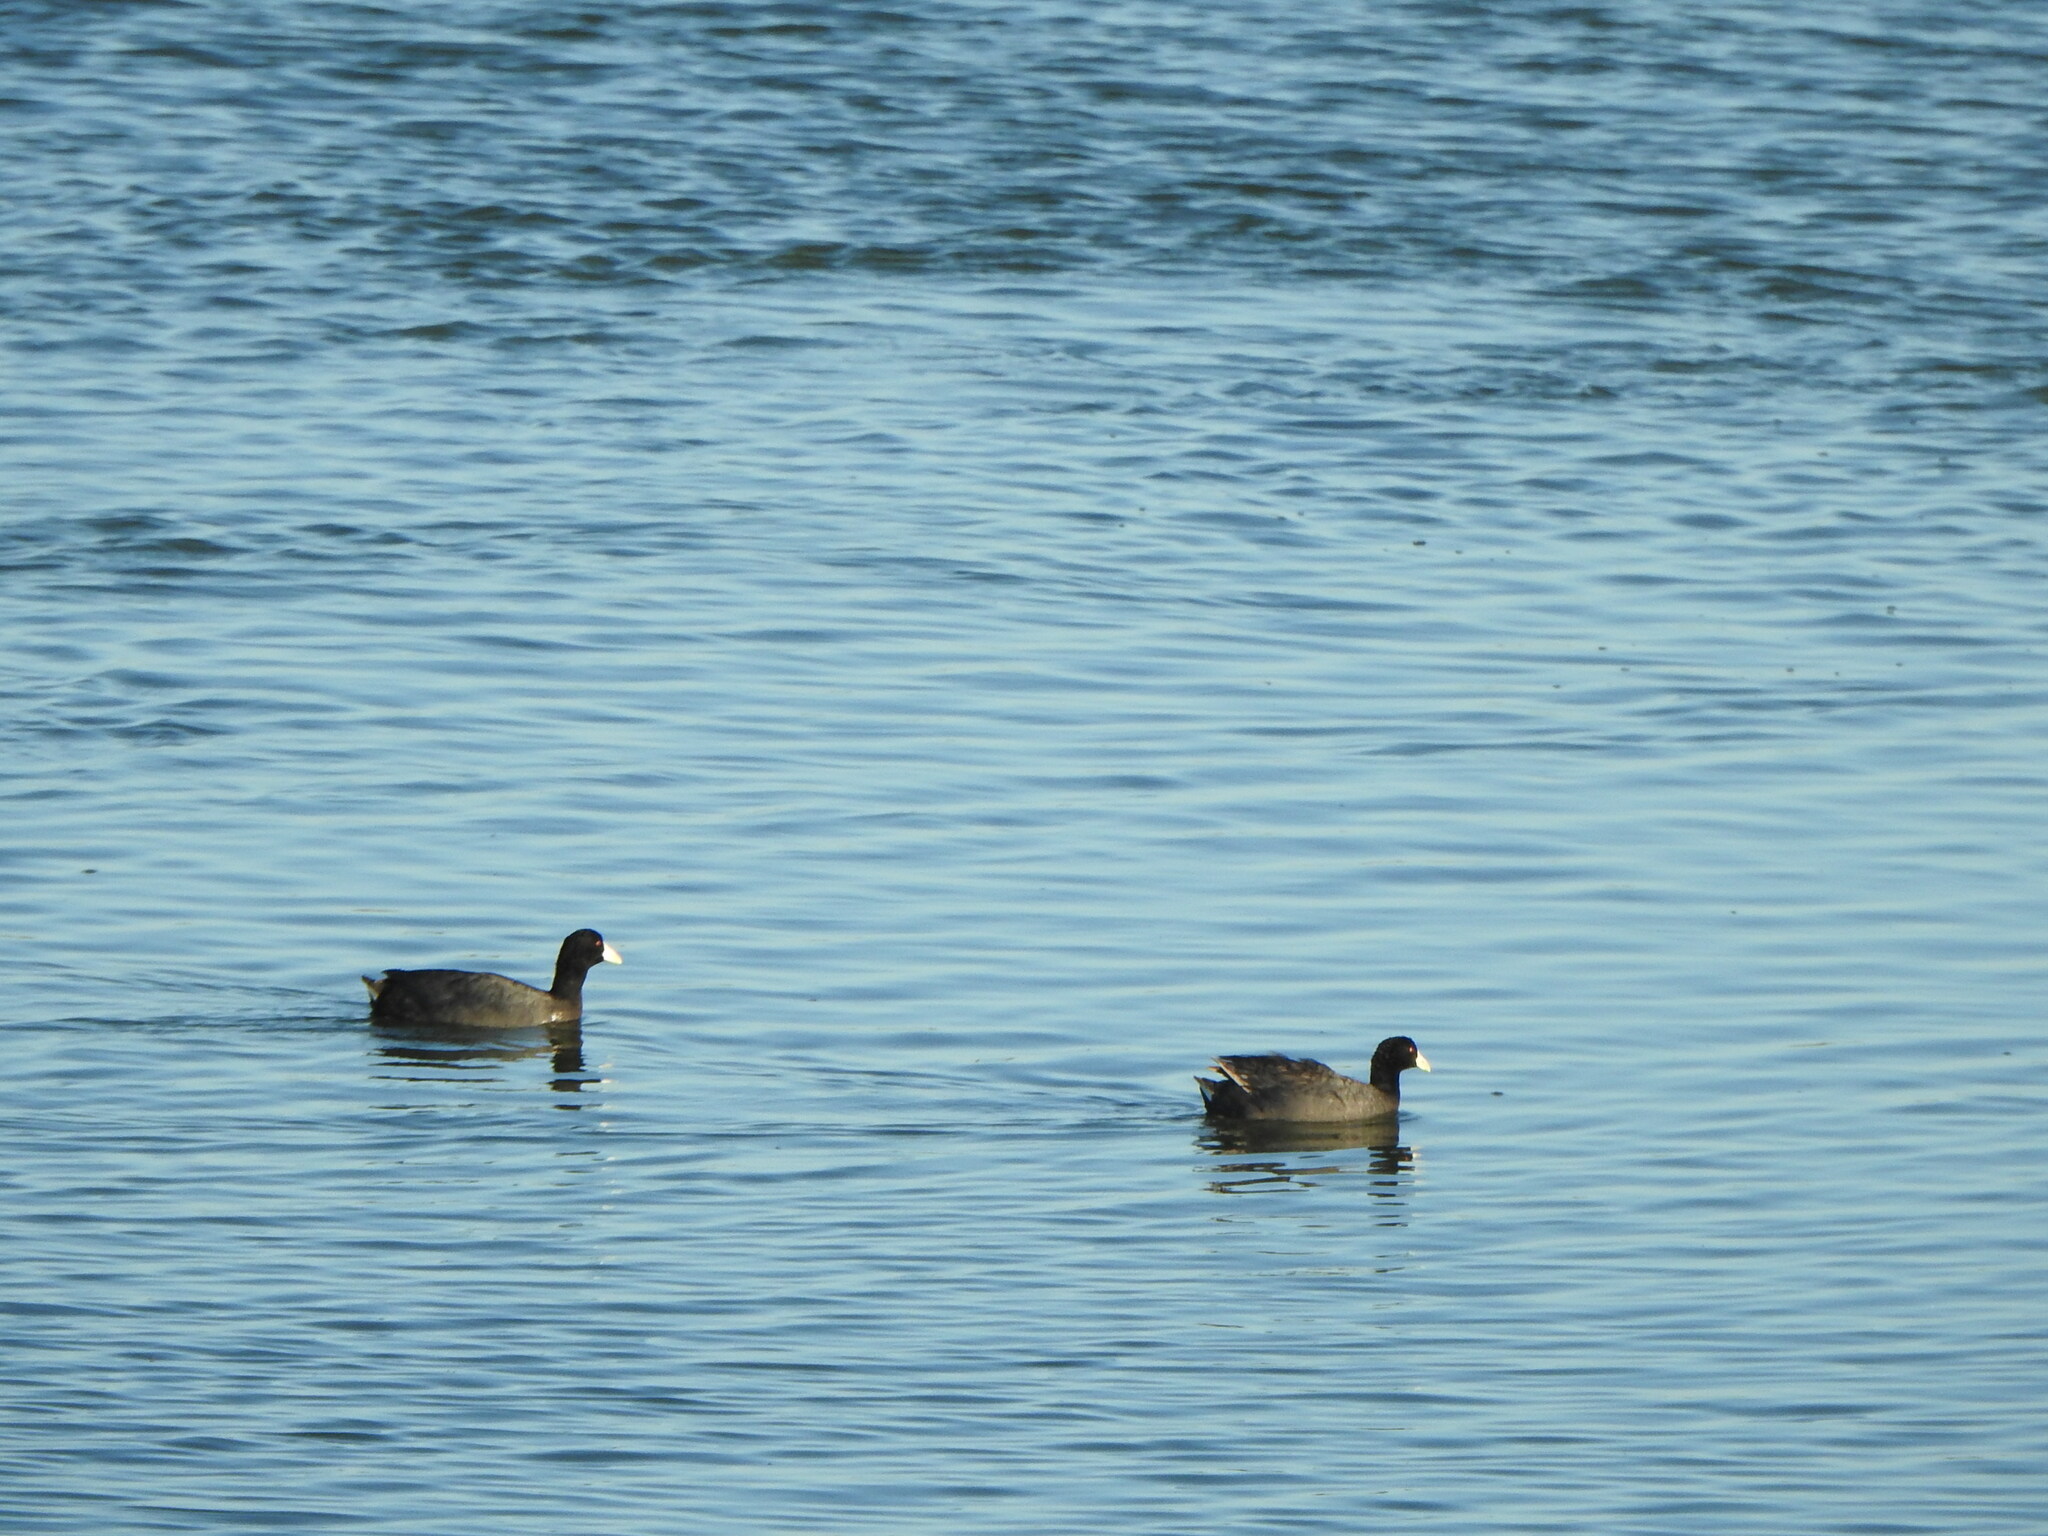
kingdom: Animalia
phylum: Chordata
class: Aves
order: Gruiformes
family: Rallidae
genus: Fulica
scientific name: Fulica leucoptera
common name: White-winged coot
